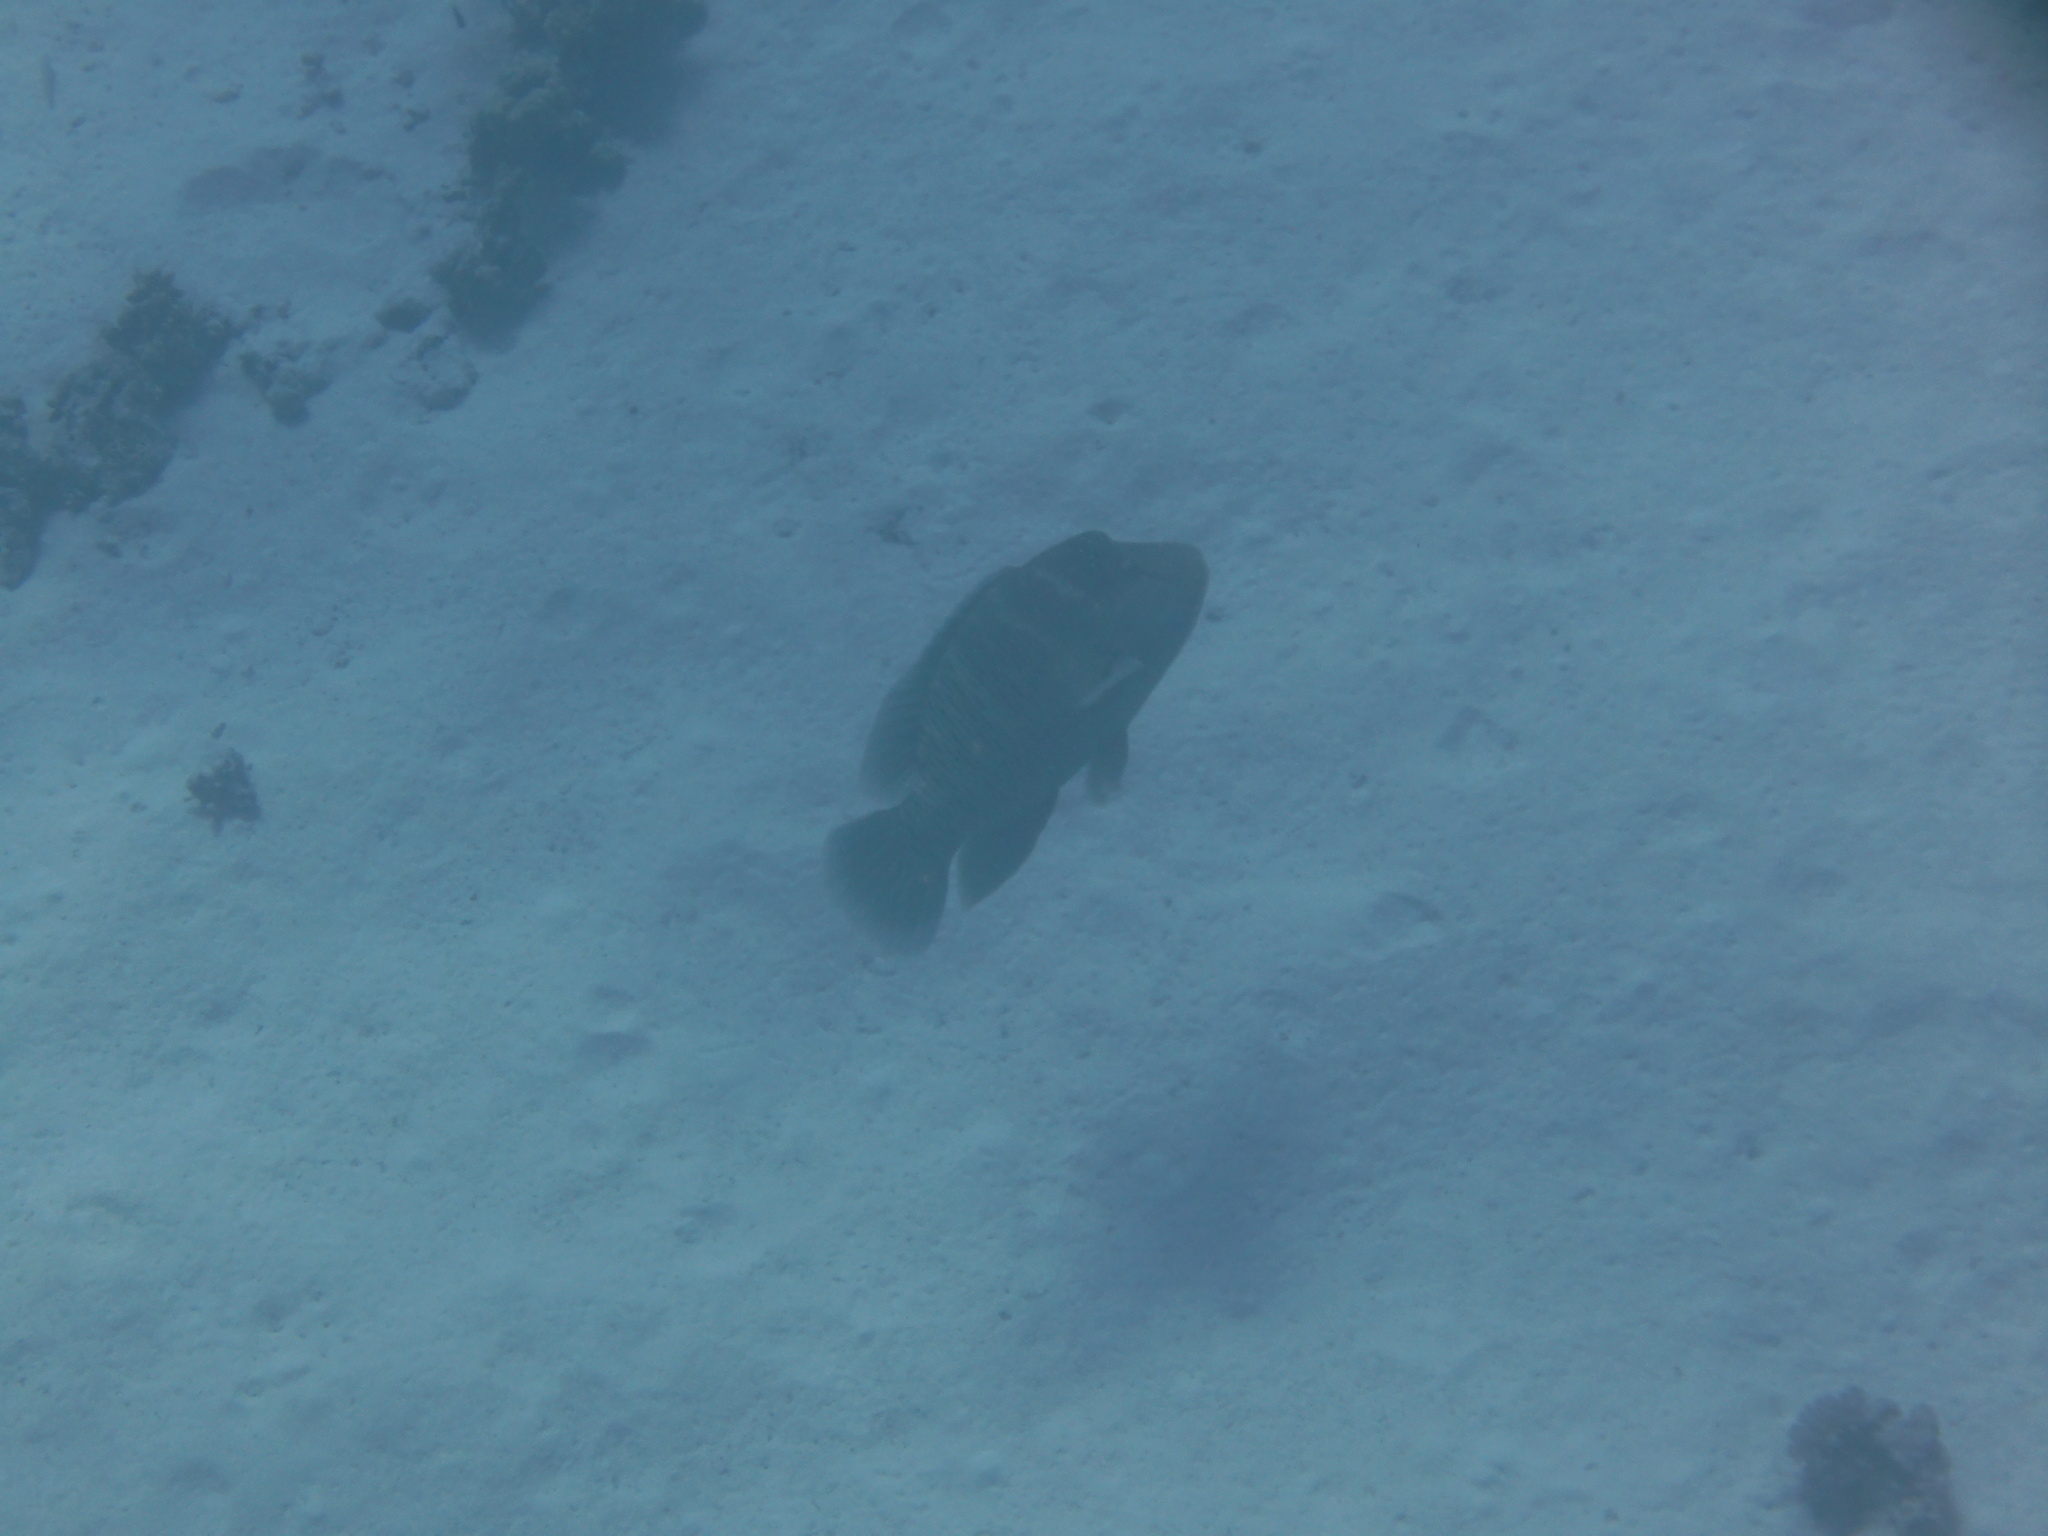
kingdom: Animalia
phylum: Chordata
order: Perciformes
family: Labridae
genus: Cheilinus
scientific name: Cheilinus undulatus
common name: Humphead wrasse
